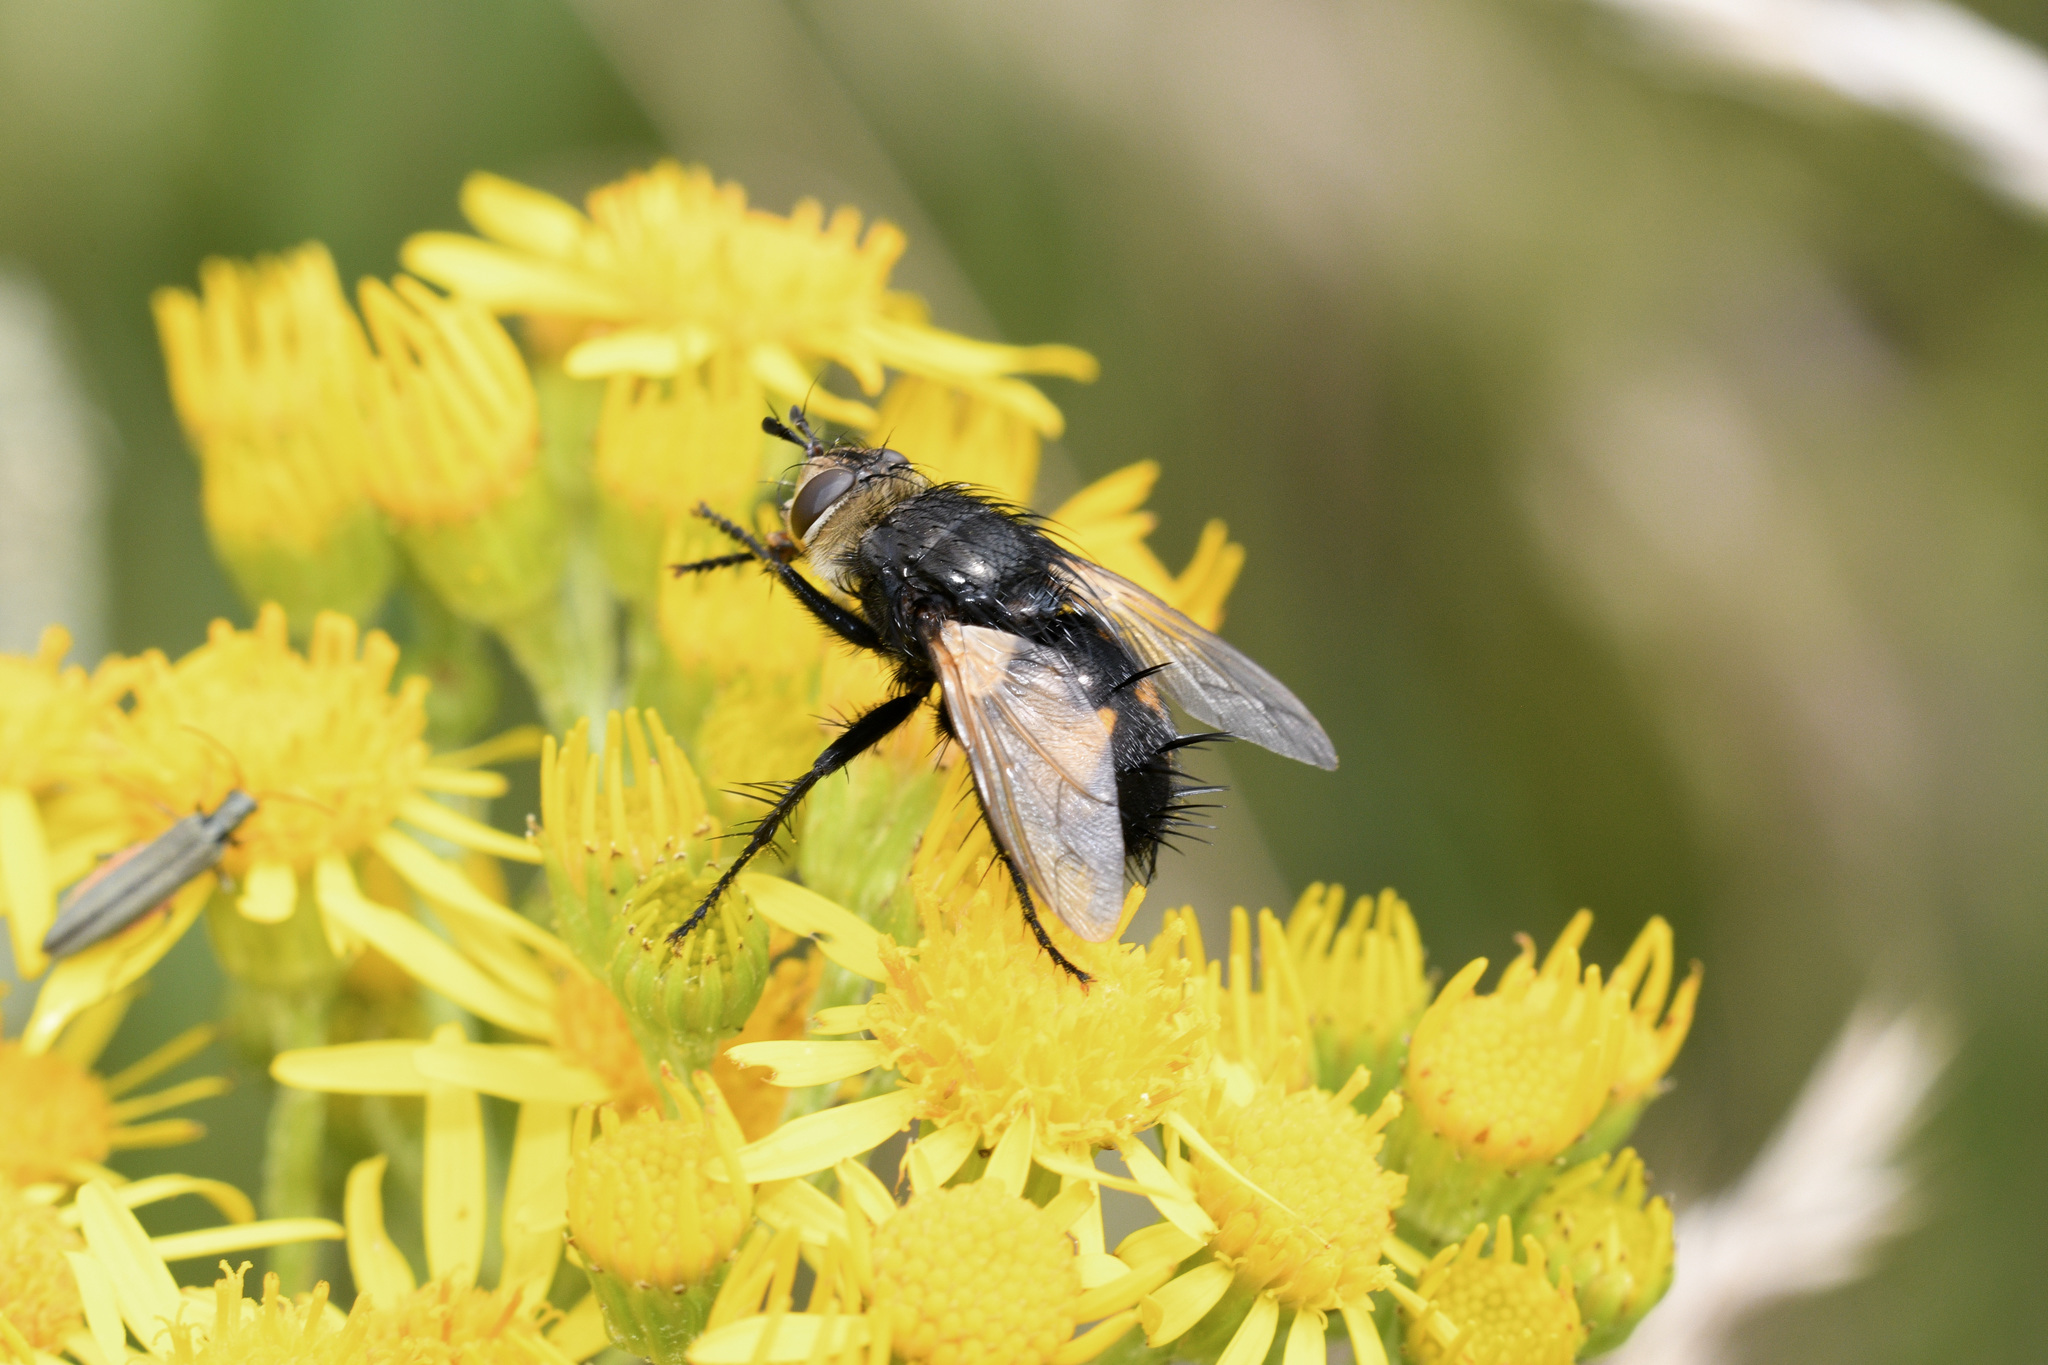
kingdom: Animalia
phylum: Arthropoda
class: Insecta
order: Diptera
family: Tachinidae
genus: Nowickia
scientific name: Nowickia ferox
